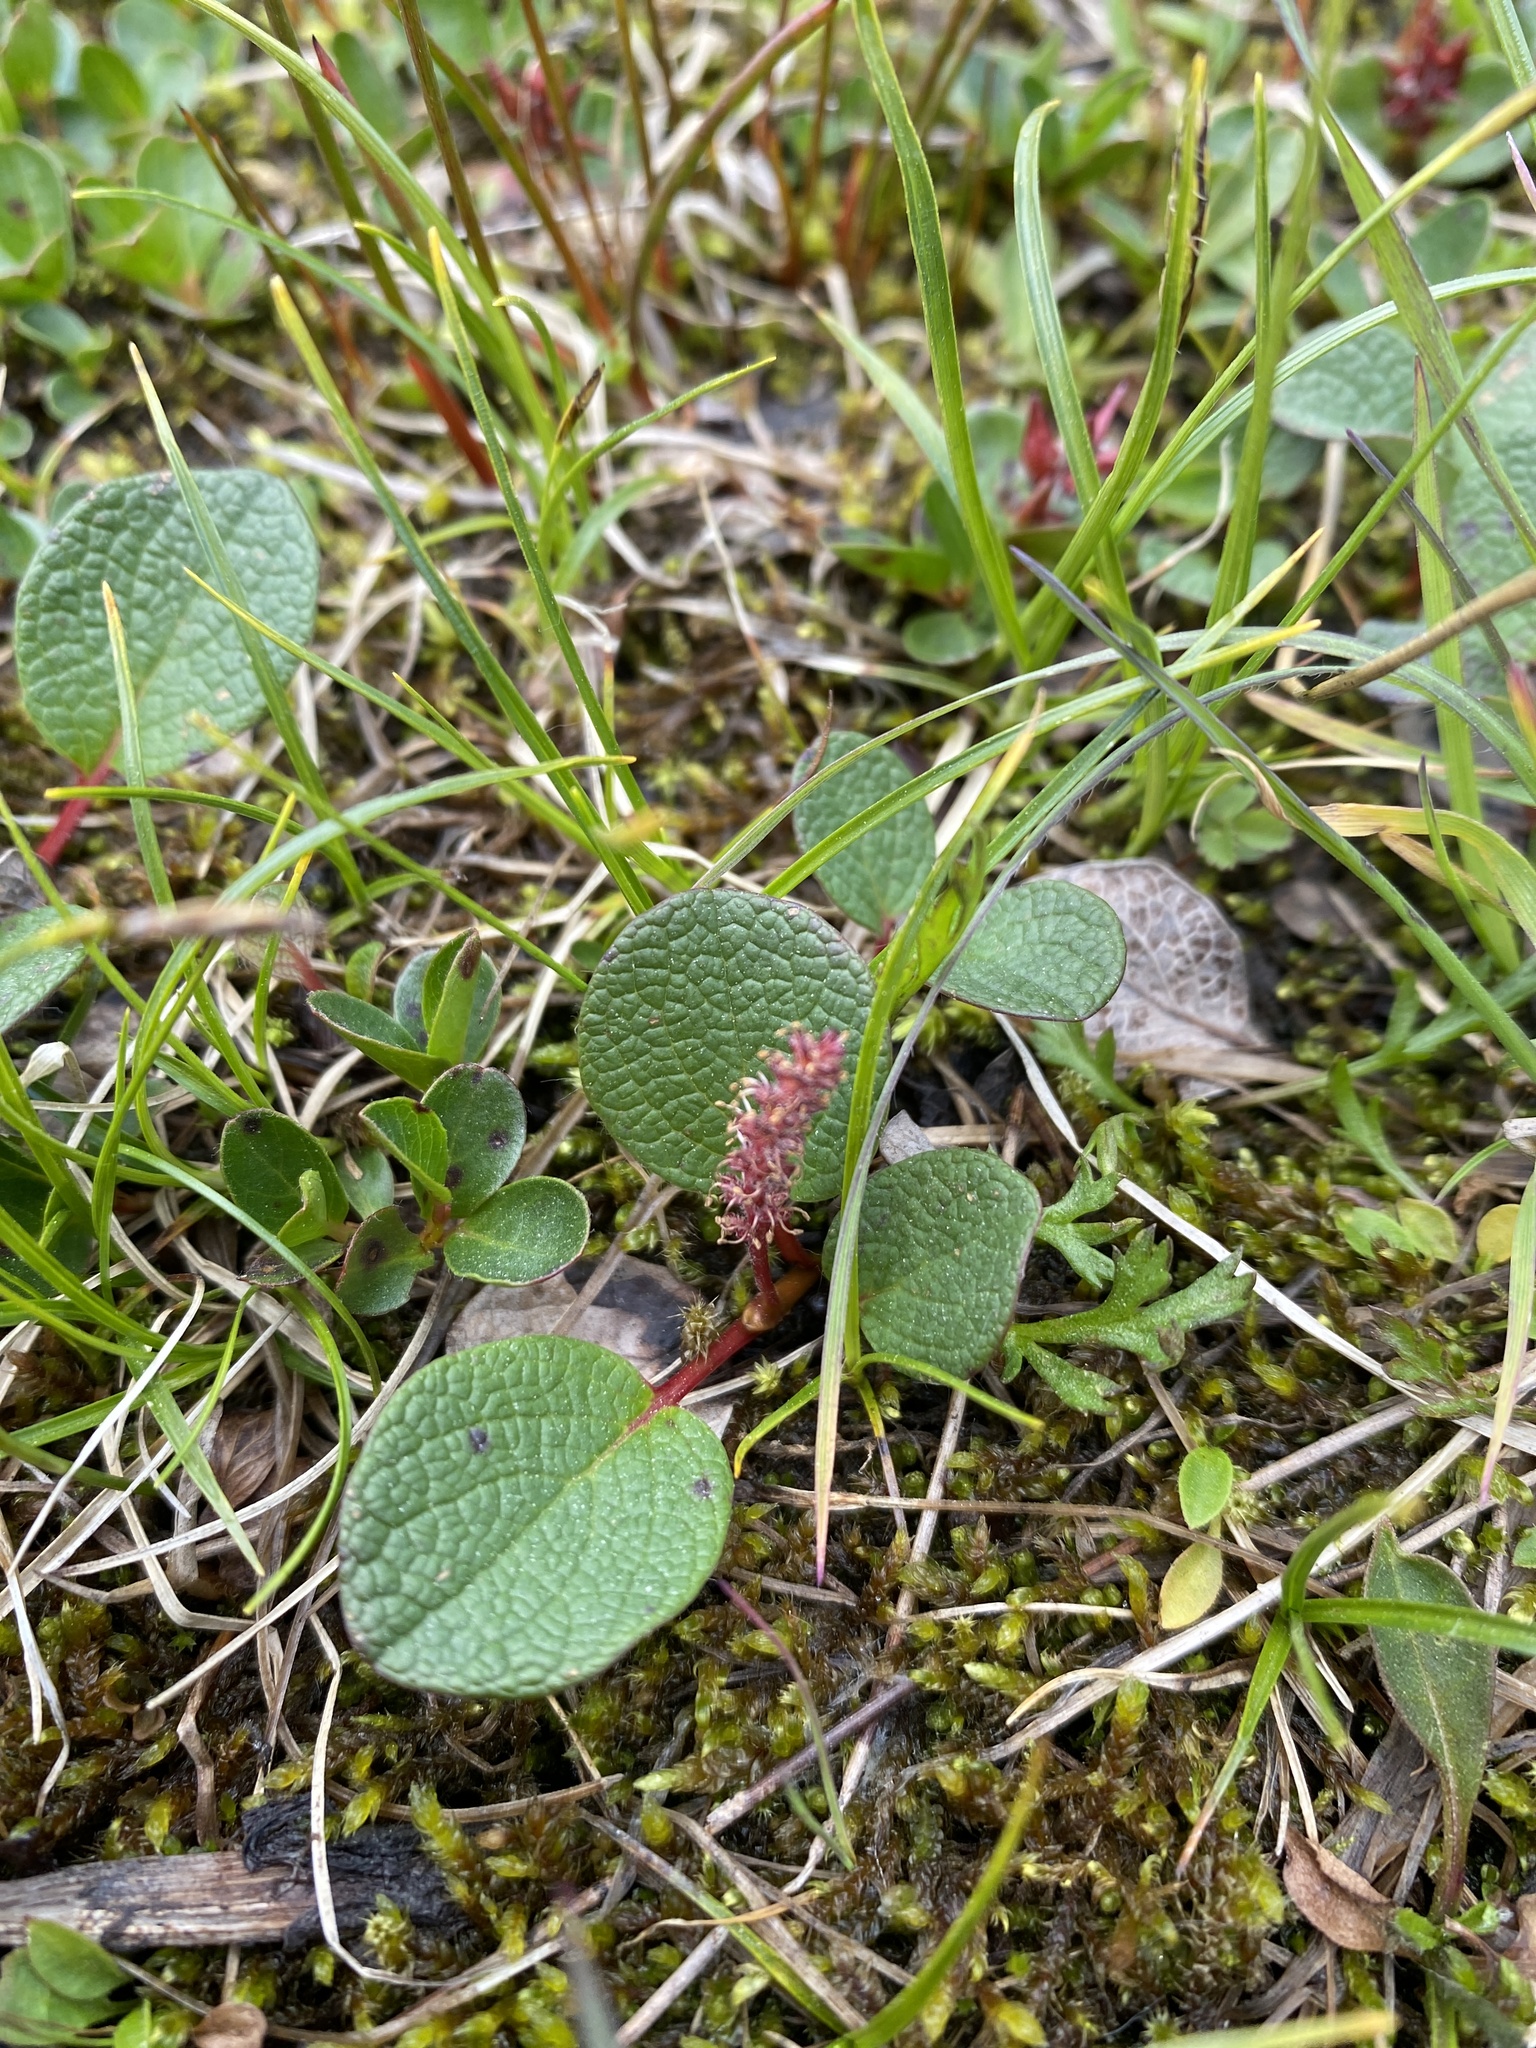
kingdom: Plantae
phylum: Tracheophyta
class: Magnoliopsida
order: Malpighiales
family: Salicaceae
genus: Salix
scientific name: Salix reticulata
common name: Net-leaved willow
